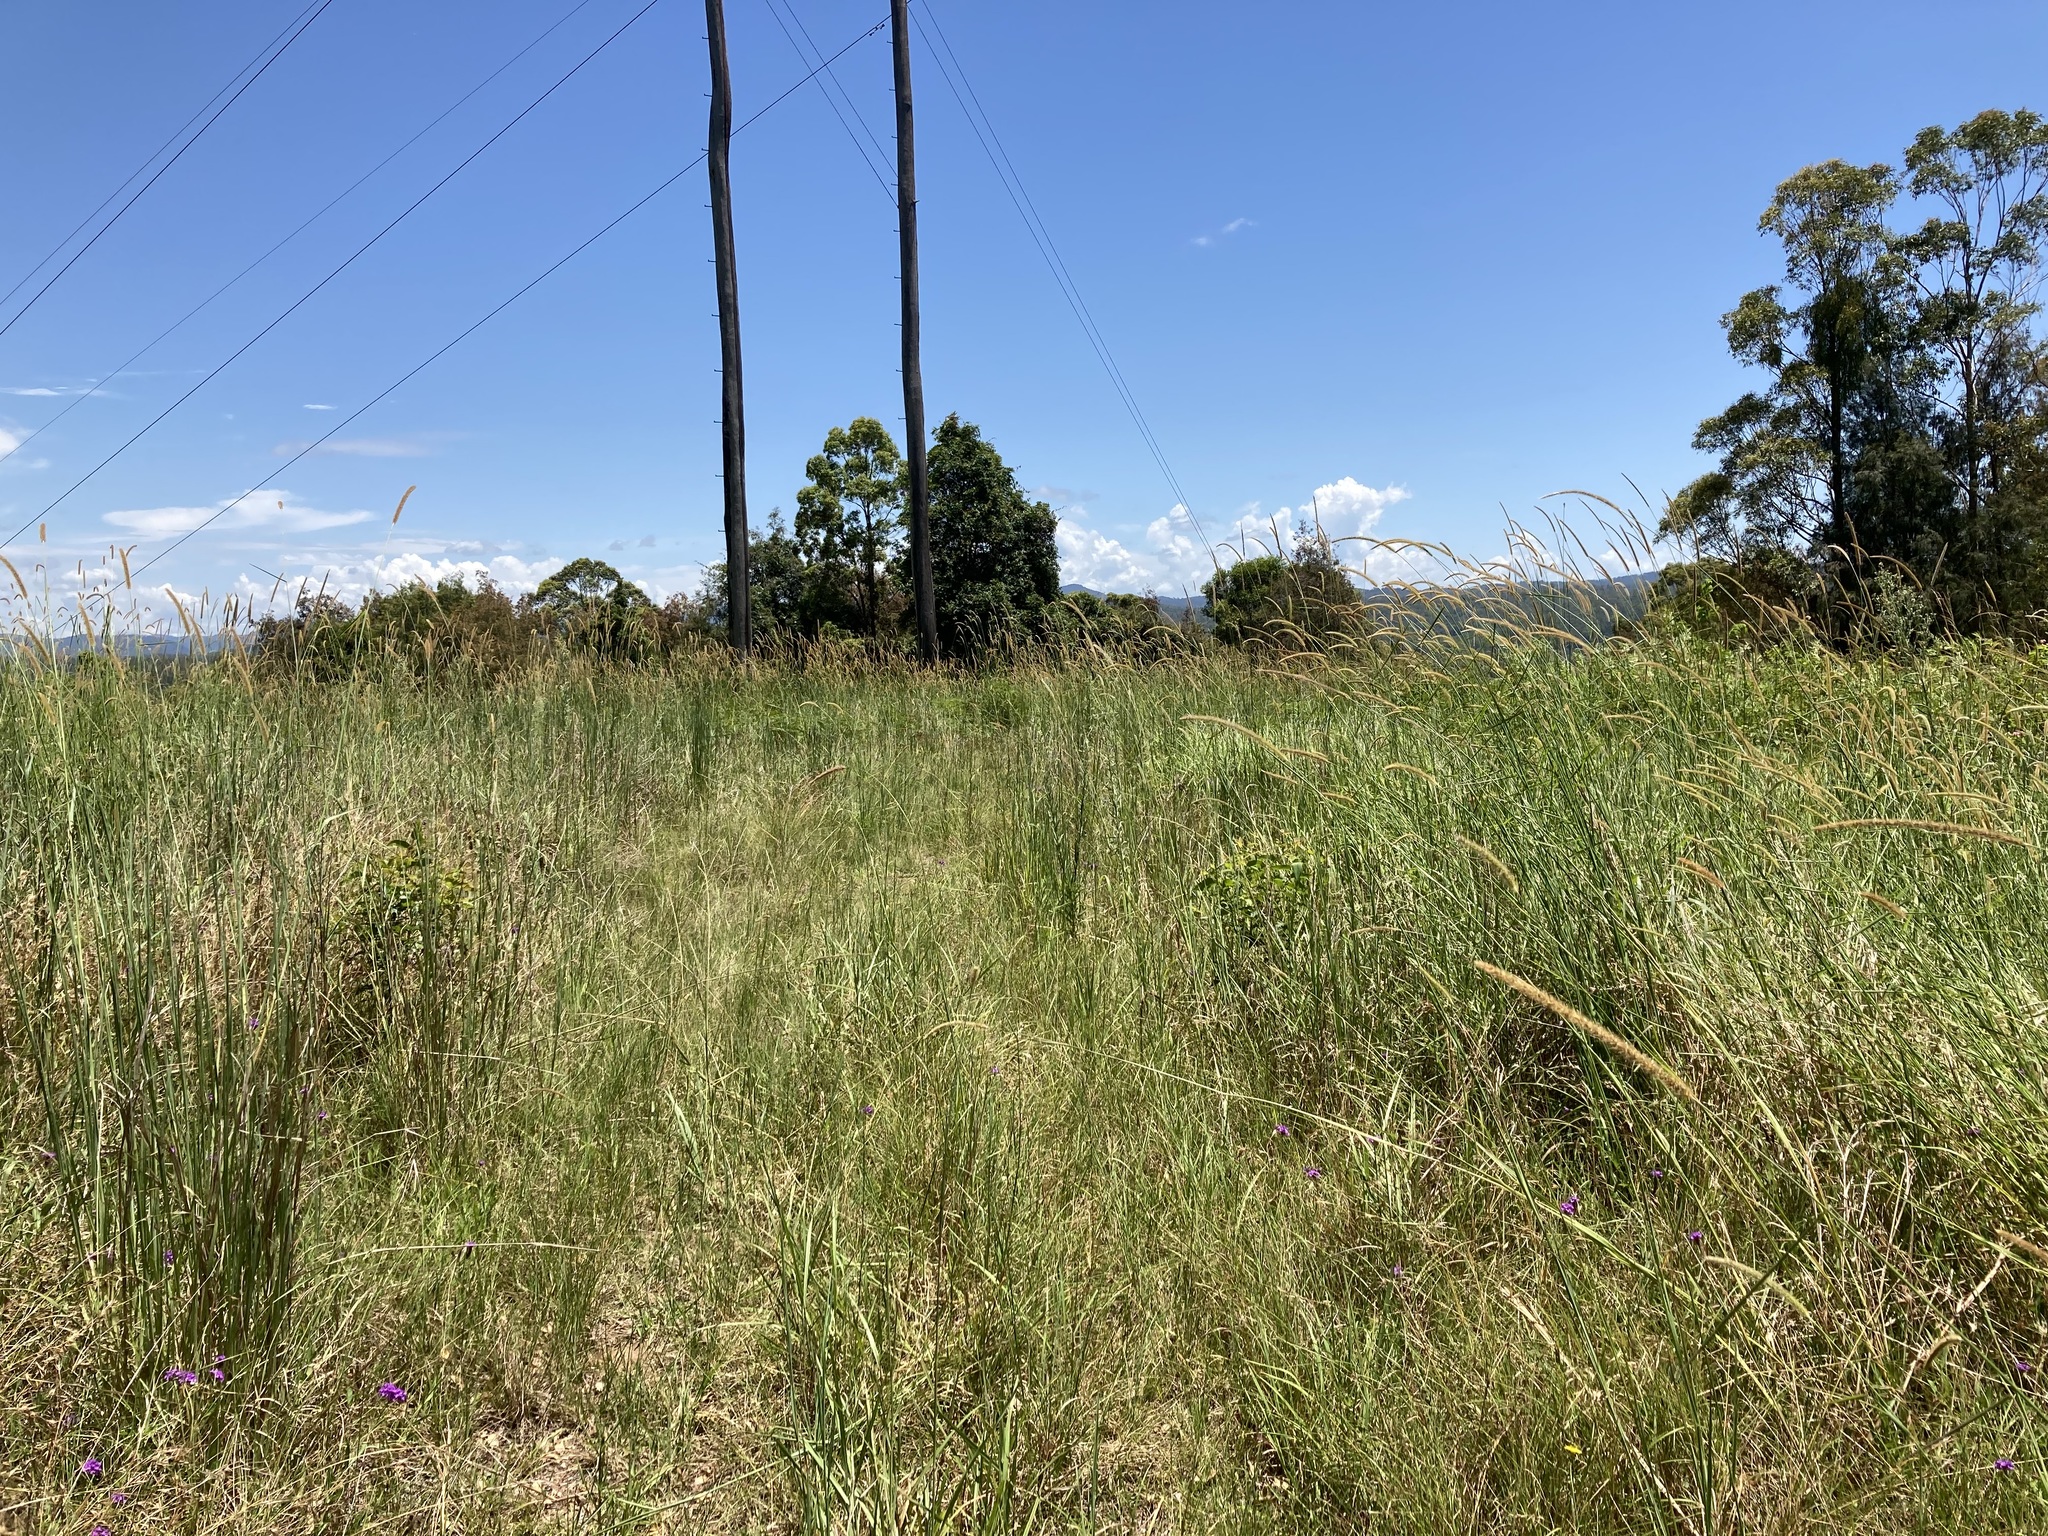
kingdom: Plantae
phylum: Tracheophyta
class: Liliopsida
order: Poales
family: Poaceae
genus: Setaria
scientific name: Setaria sphacelata
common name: African bristlegrass
